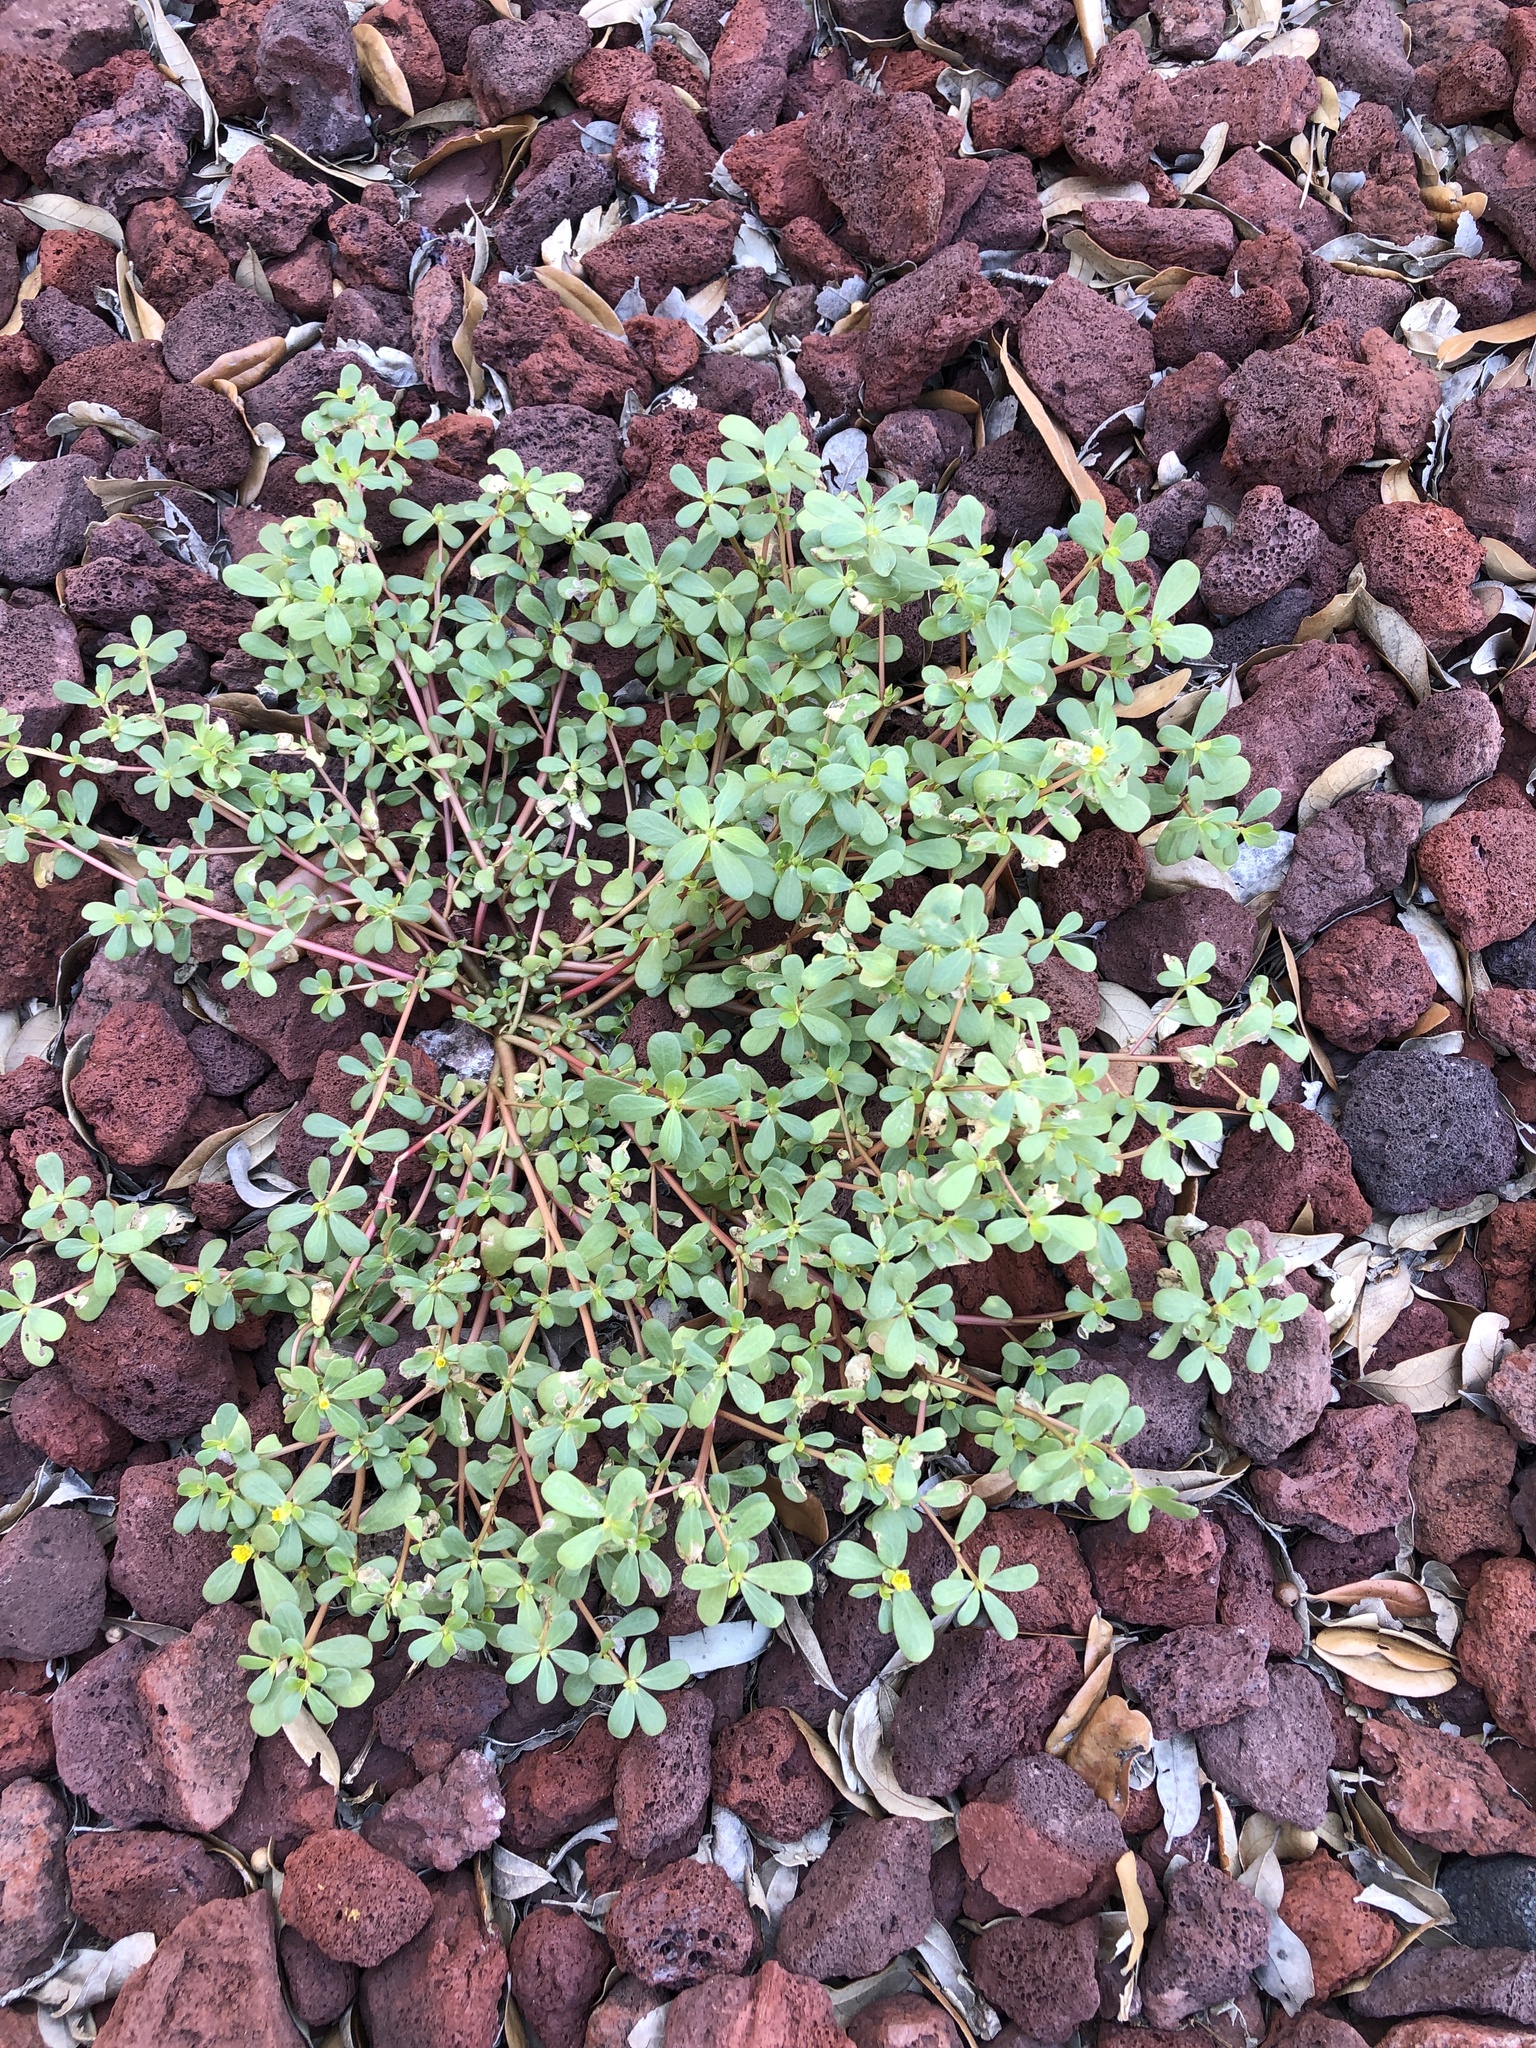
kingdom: Plantae
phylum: Tracheophyta
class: Magnoliopsida
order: Caryophyllales
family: Portulacaceae
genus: Portulaca
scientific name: Portulaca oleracea
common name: Common purslane
